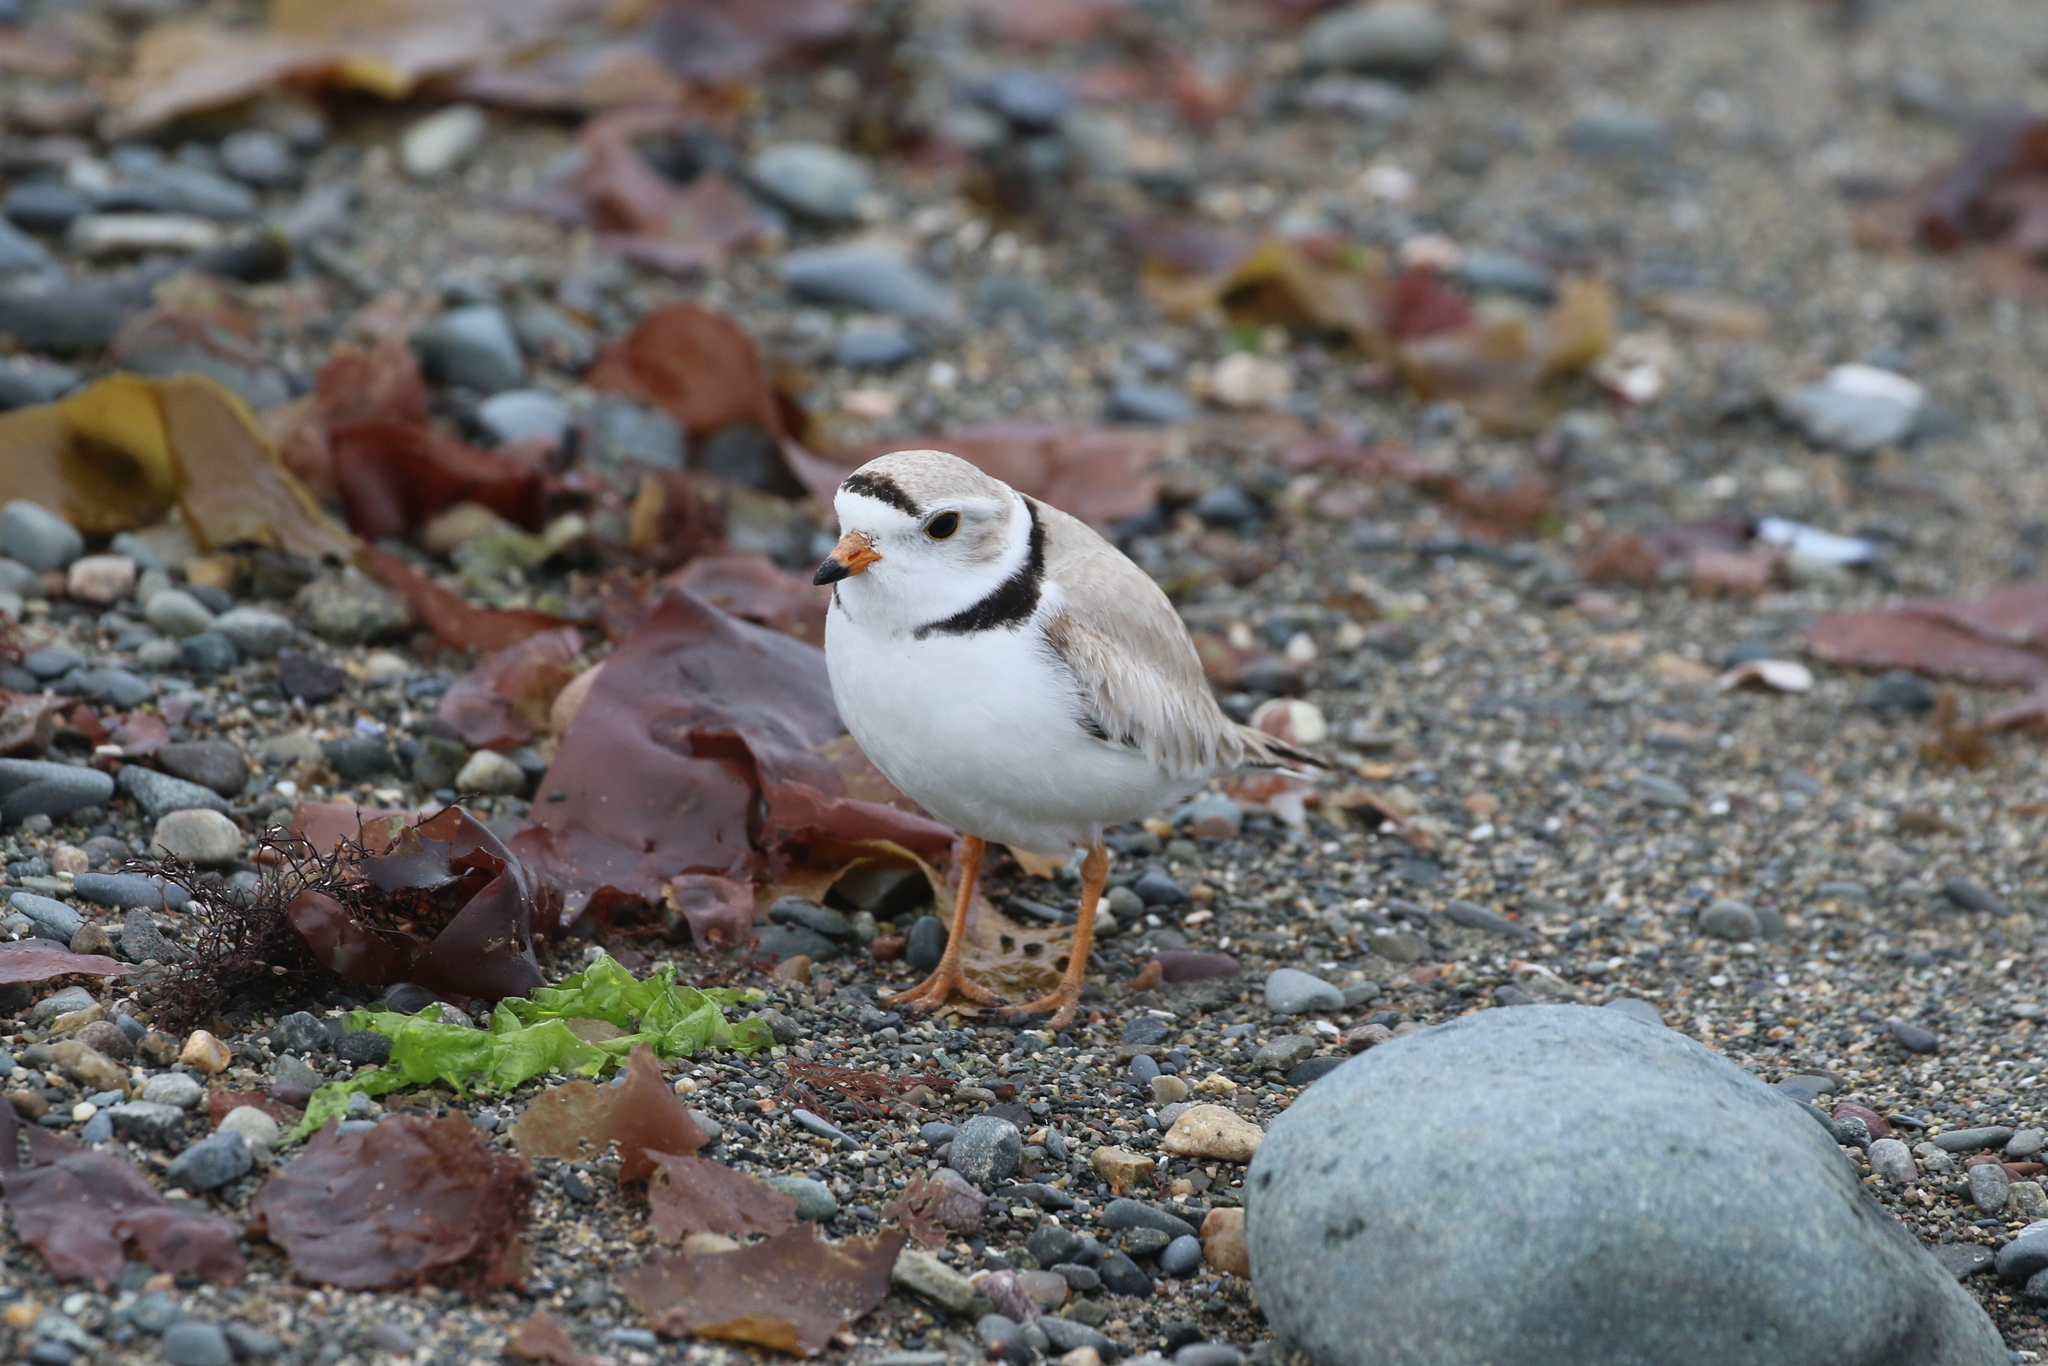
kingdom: Animalia
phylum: Chordata
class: Aves
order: Charadriiformes
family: Charadriidae
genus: Charadrius
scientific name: Charadrius melodus
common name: Piping plover
